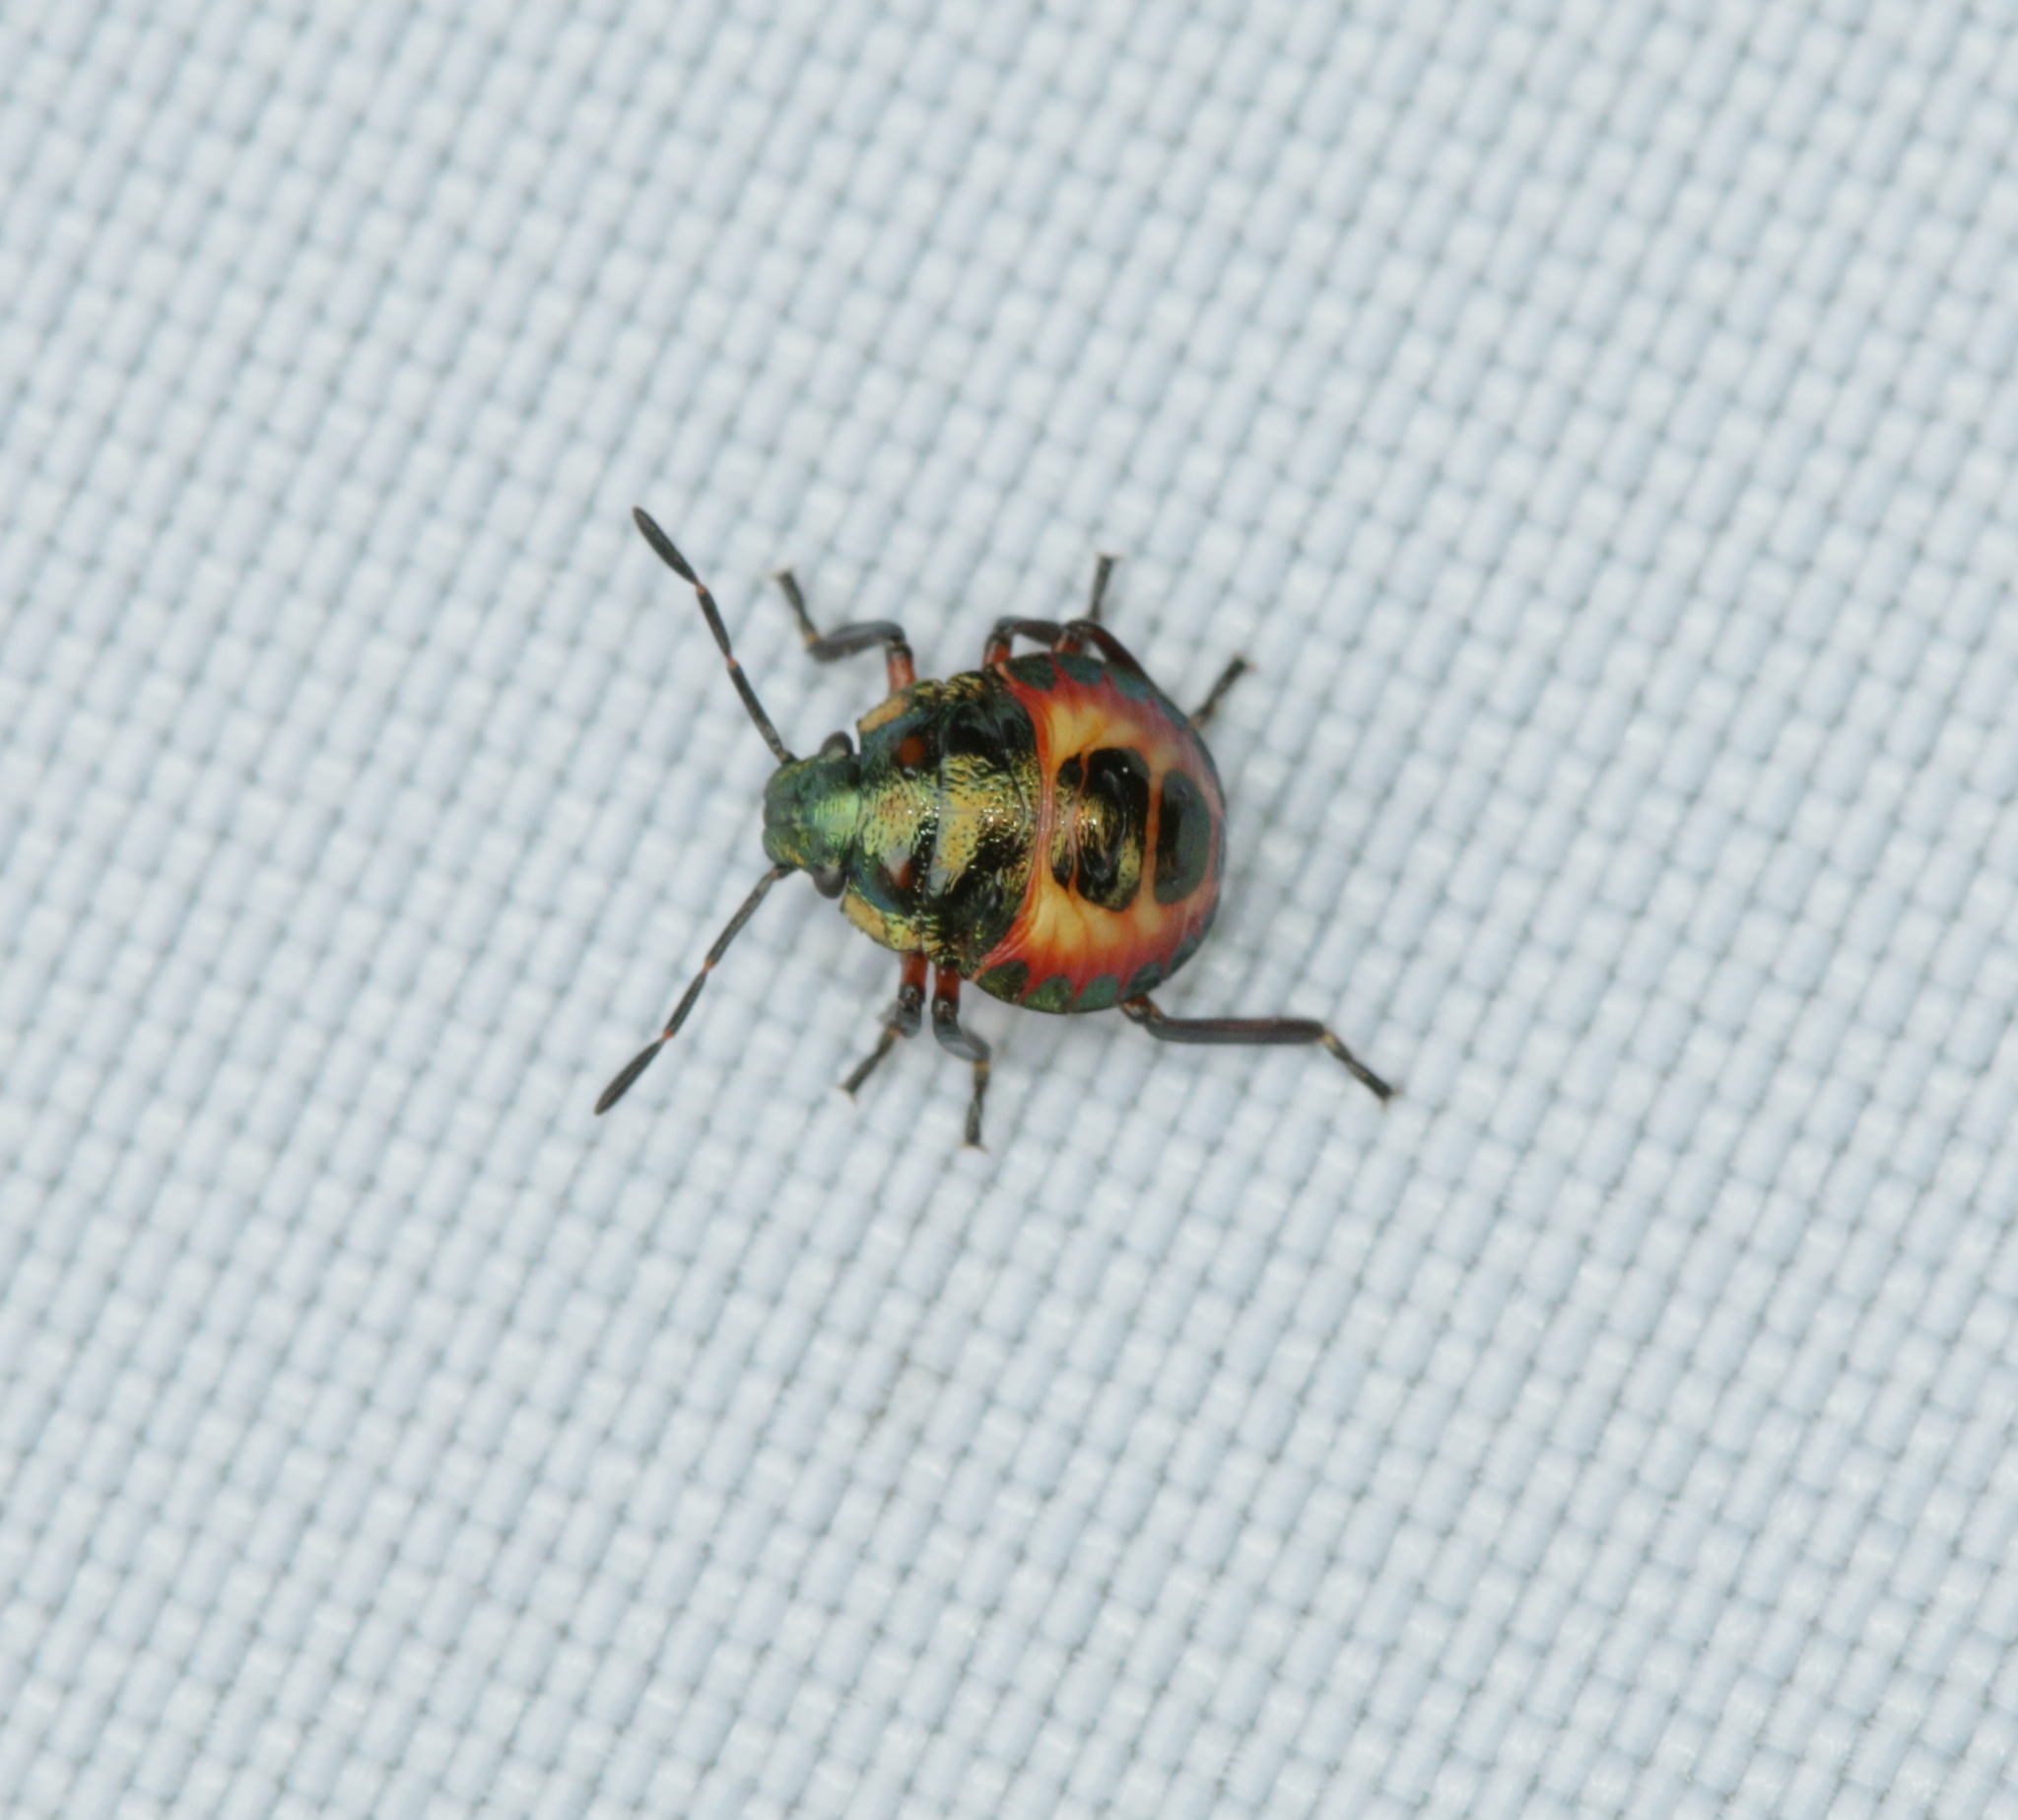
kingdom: Animalia
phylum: Arthropoda
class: Insecta
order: Hemiptera
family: Pentatomidae
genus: Troilus
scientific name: Troilus luridus
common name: Bronze shieldbug
